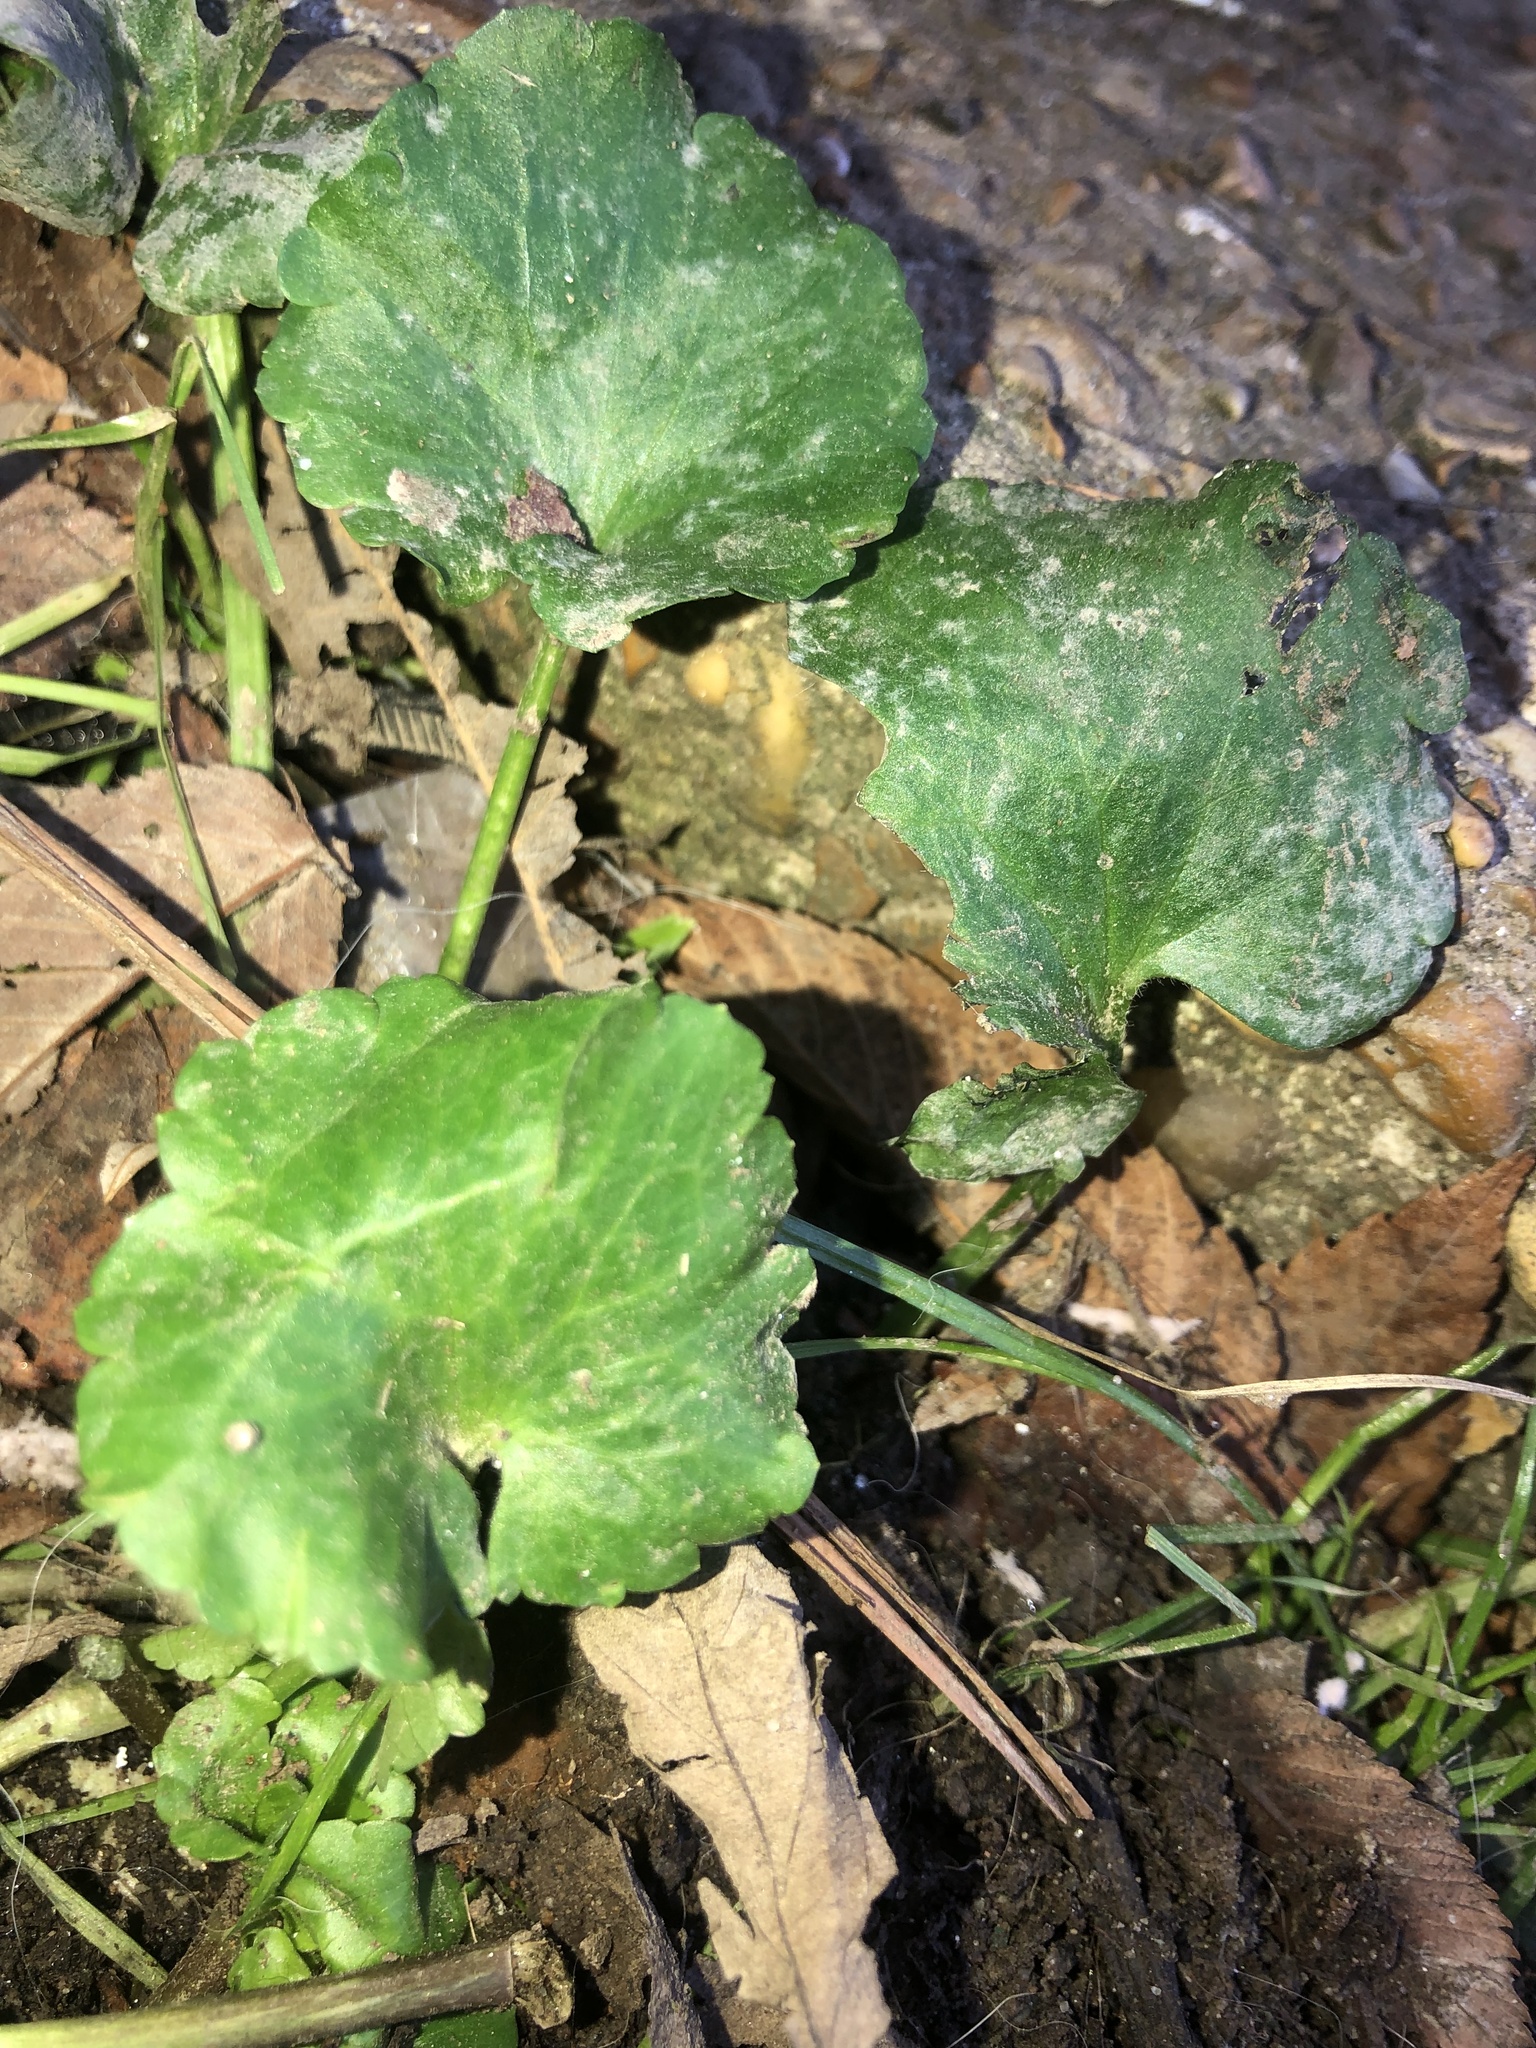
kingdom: Plantae
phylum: Tracheophyta
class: Magnoliopsida
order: Lamiales
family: Lamiaceae
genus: Lamium
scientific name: Lamium purpureum
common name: Red dead-nettle
